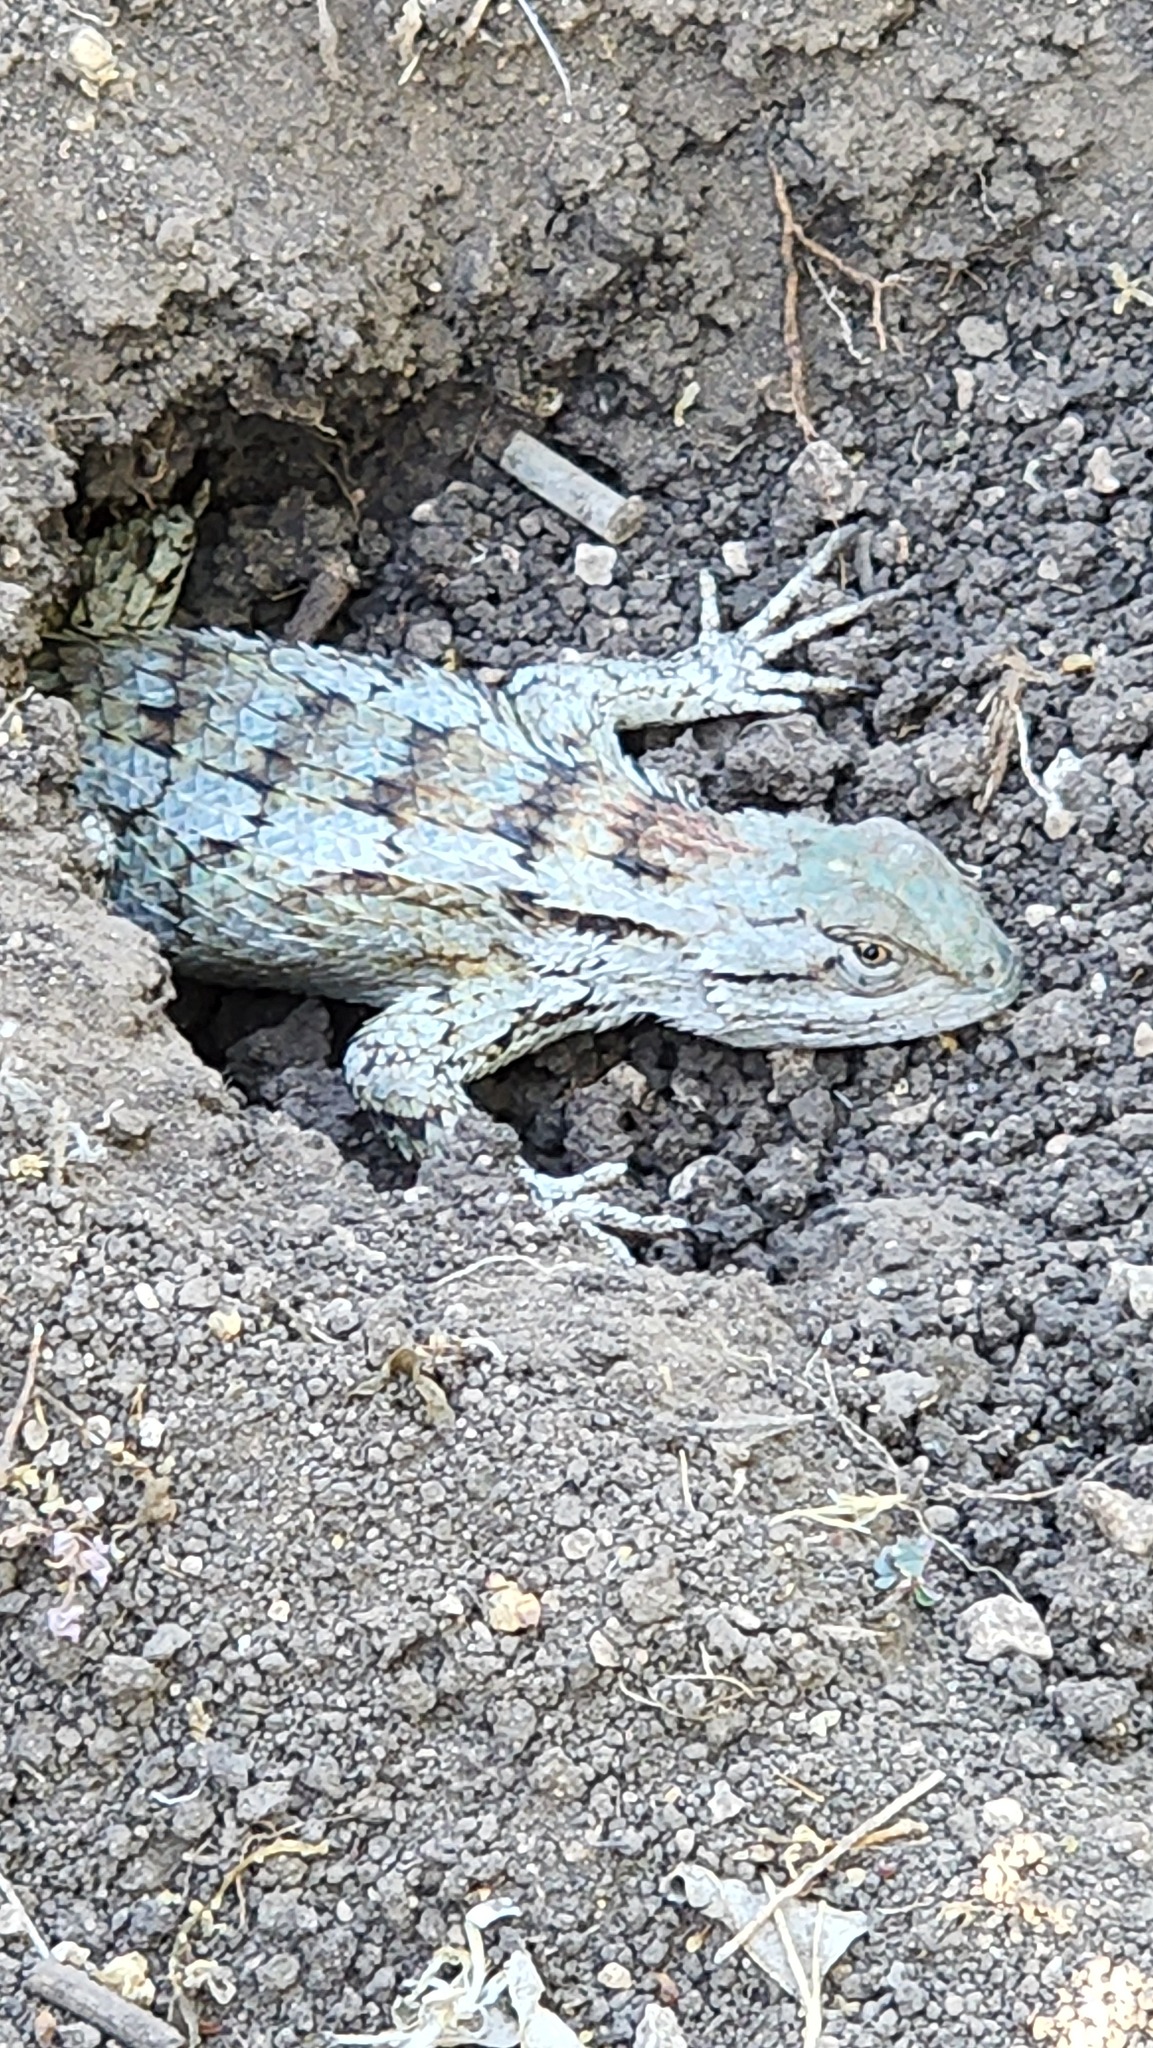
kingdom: Animalia
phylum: Chordata
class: Squamata
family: Phrynosomatidae
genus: Sceloporus
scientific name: Sceloporus olivaceus
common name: Texas spiny lizard
